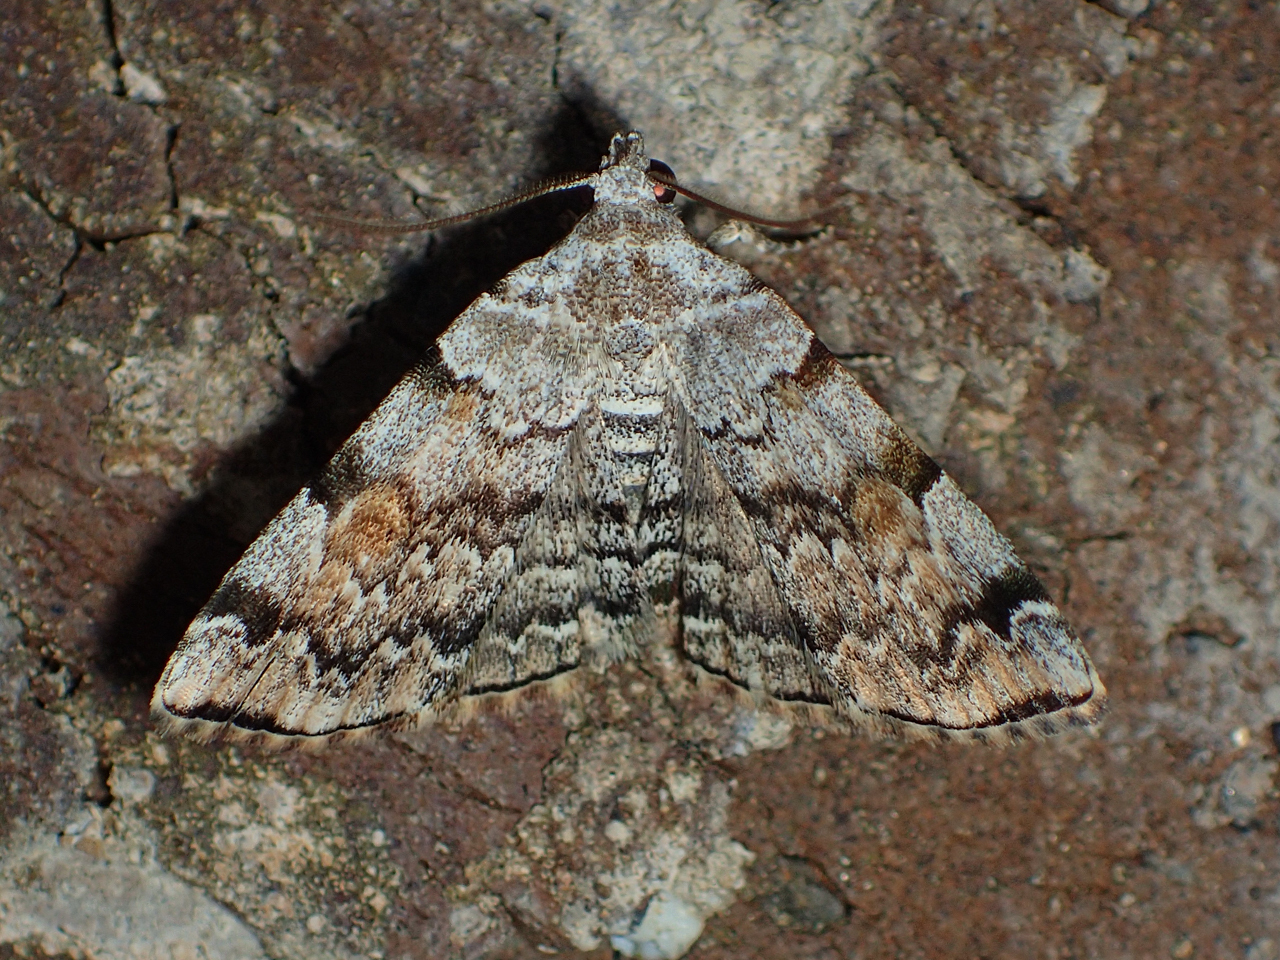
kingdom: Animalia
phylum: Arthropoda
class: Insecta
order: Lepidoptera
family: Erebidae
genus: Idia
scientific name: Idia americalis
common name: American idia moth
